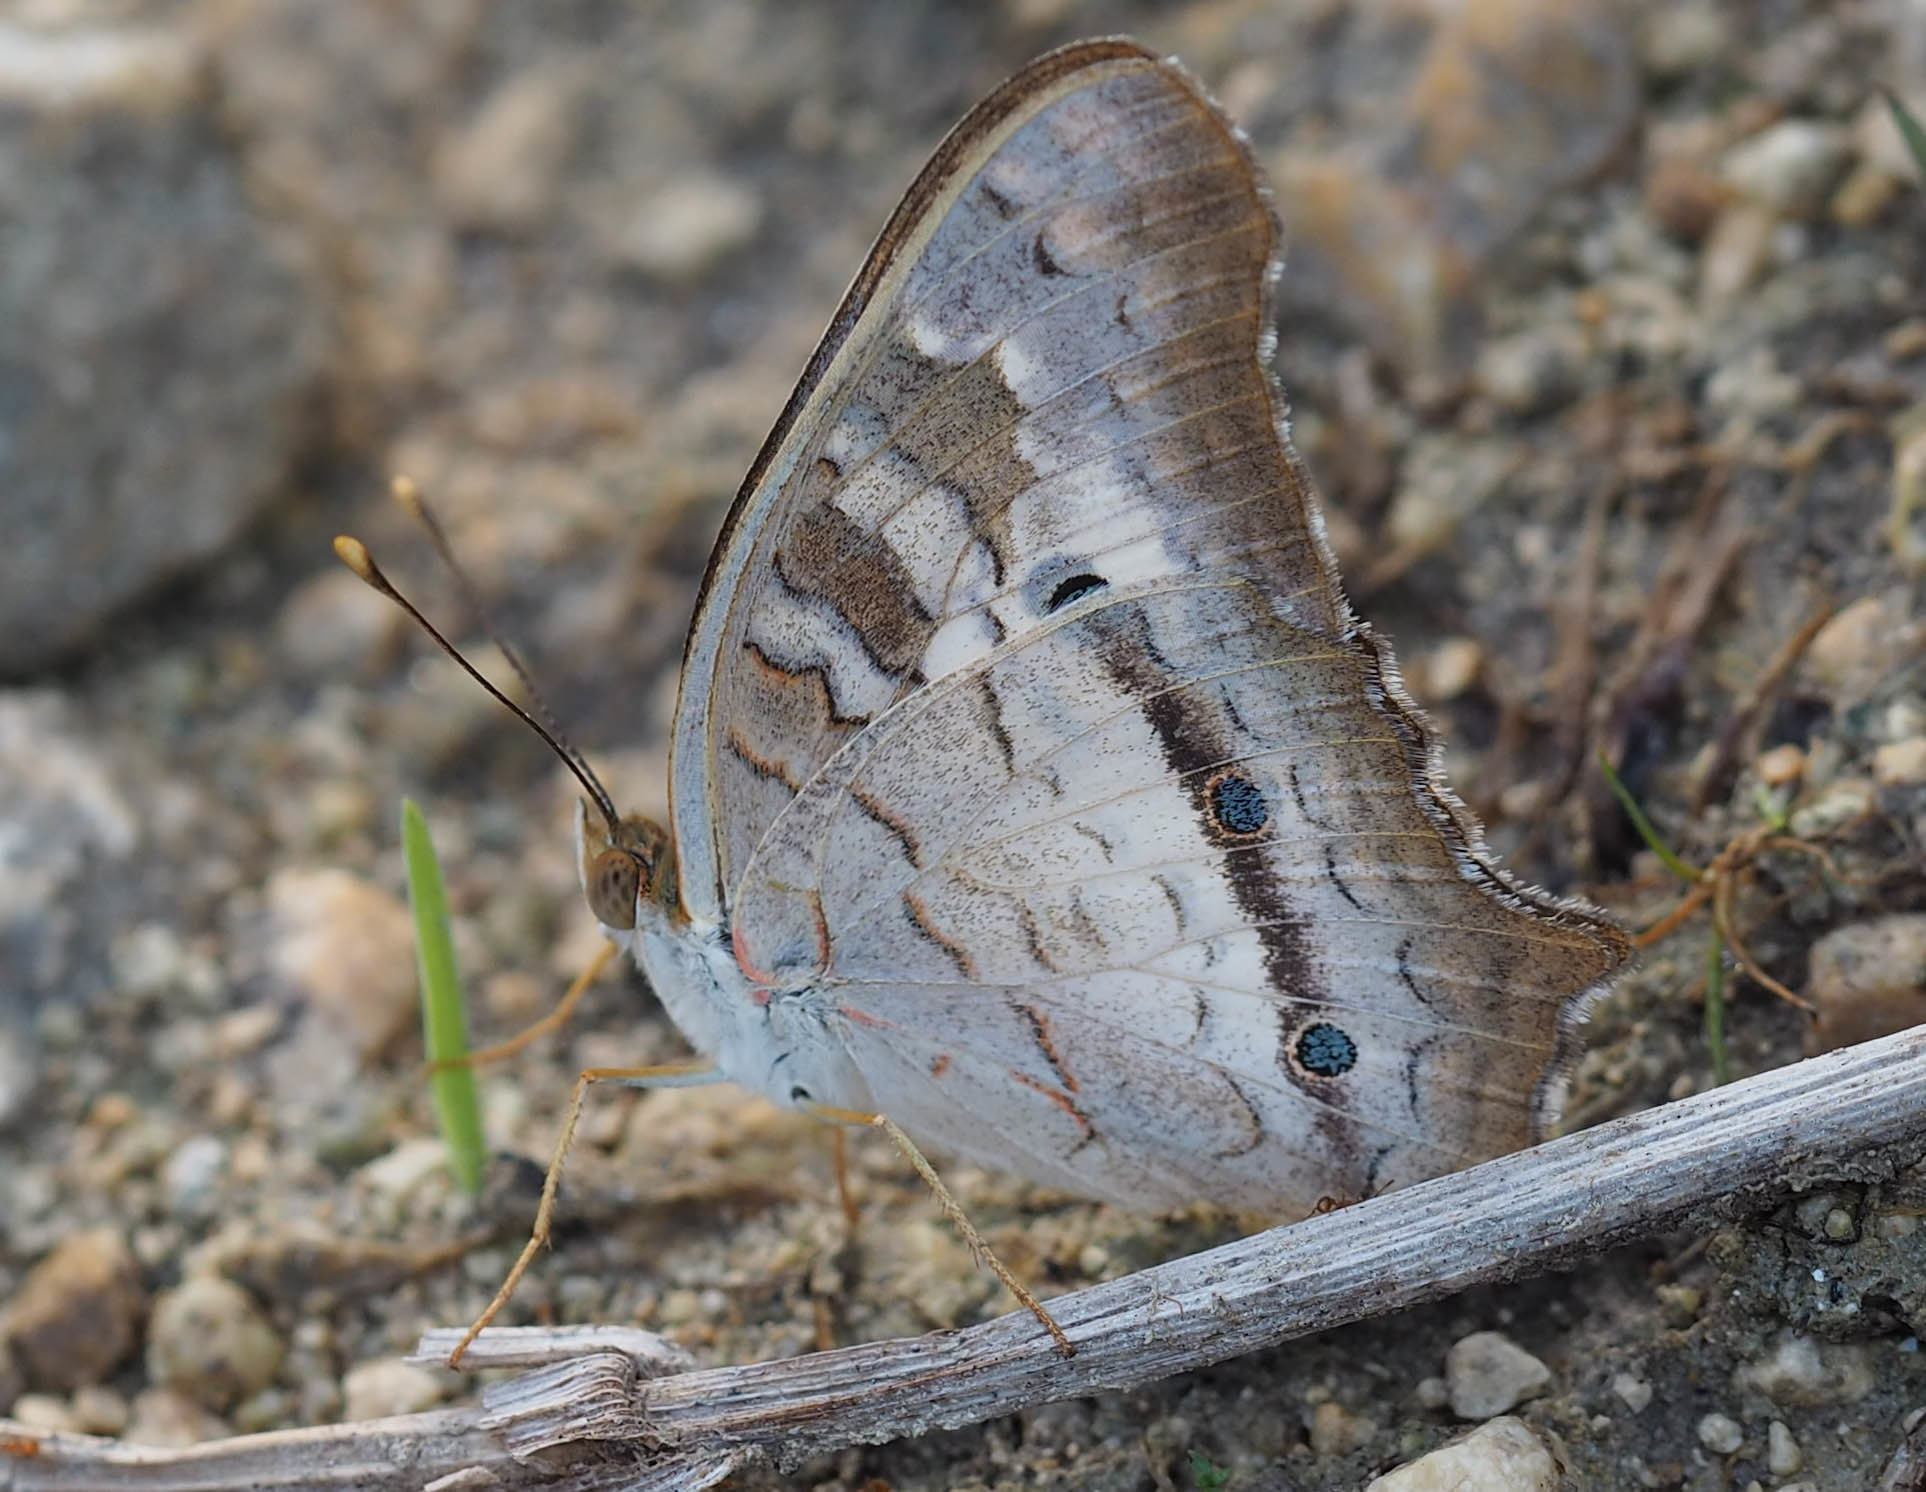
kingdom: Animalia
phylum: Arthropoda
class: Insecta
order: Lepidoptera
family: Nymphalidae
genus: Anartia
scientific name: Anartia jatrophae
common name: White peacock
